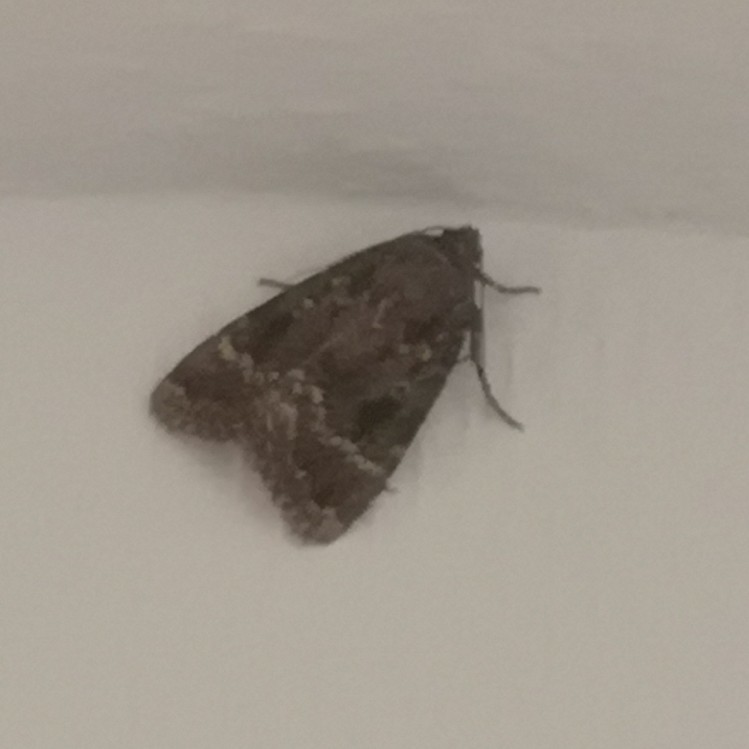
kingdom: Animalia
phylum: Arthropoda
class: Insecta
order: Lepidoptera
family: Noctuidae
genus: Amphipyra
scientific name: Amphipyra pyramidea
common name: Copper underwing
